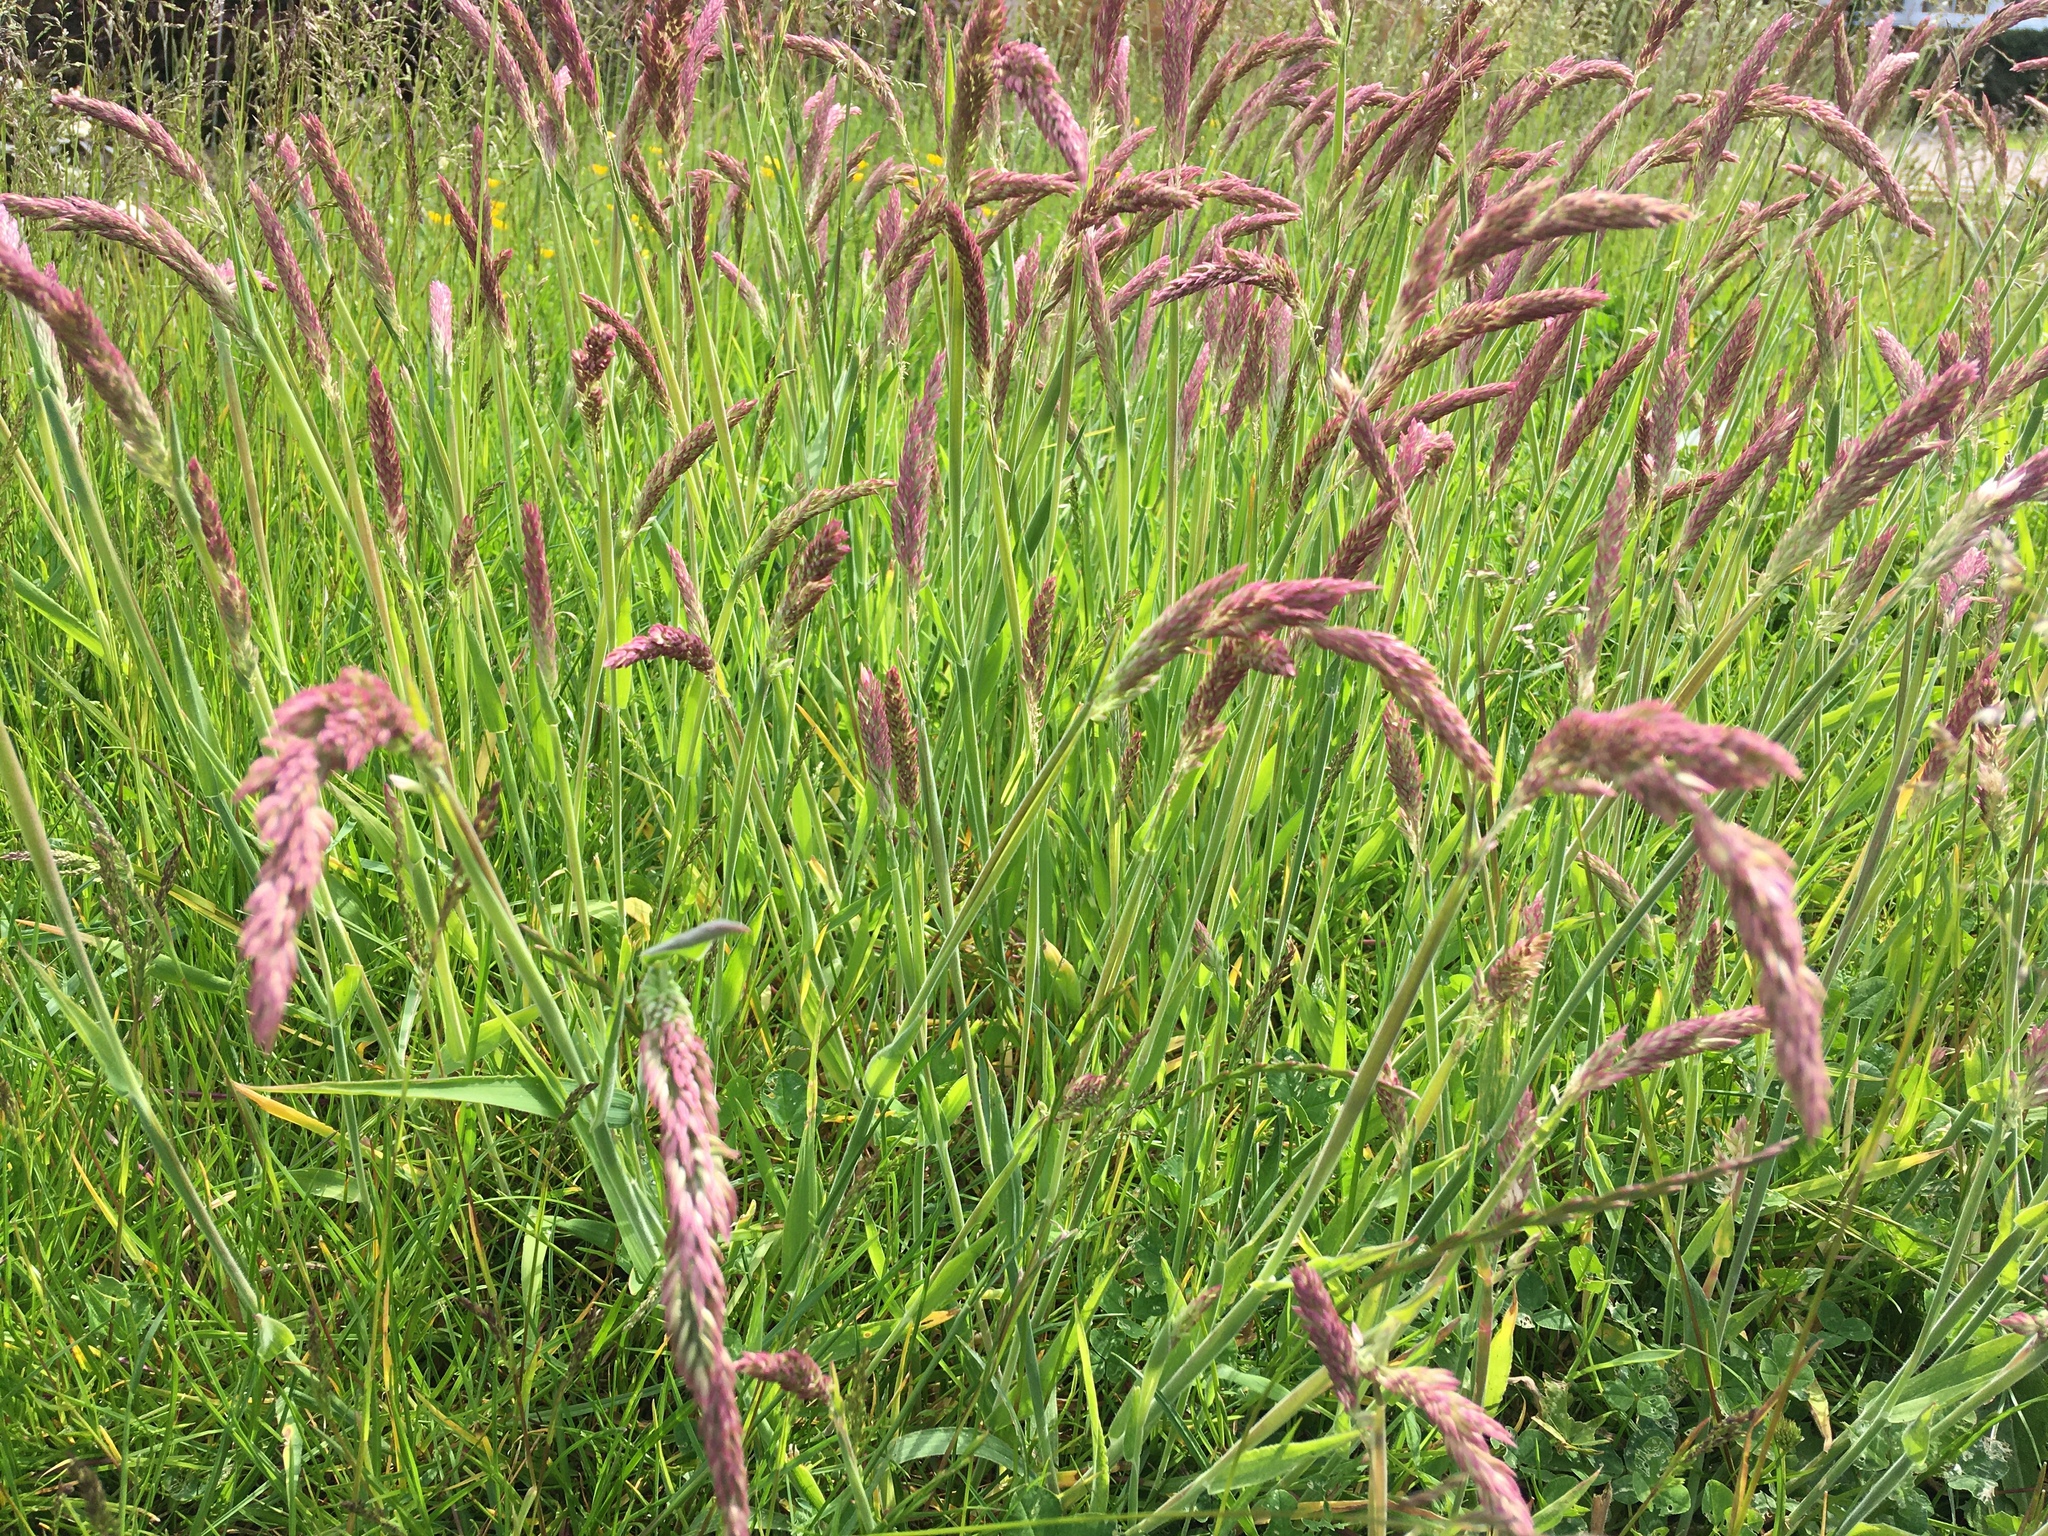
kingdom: Plantae
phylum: Tracheophyta
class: Liliopsida
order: Poales
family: Poaceae
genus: Holcus
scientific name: Holcus lanatus
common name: Yorkshire-fog
